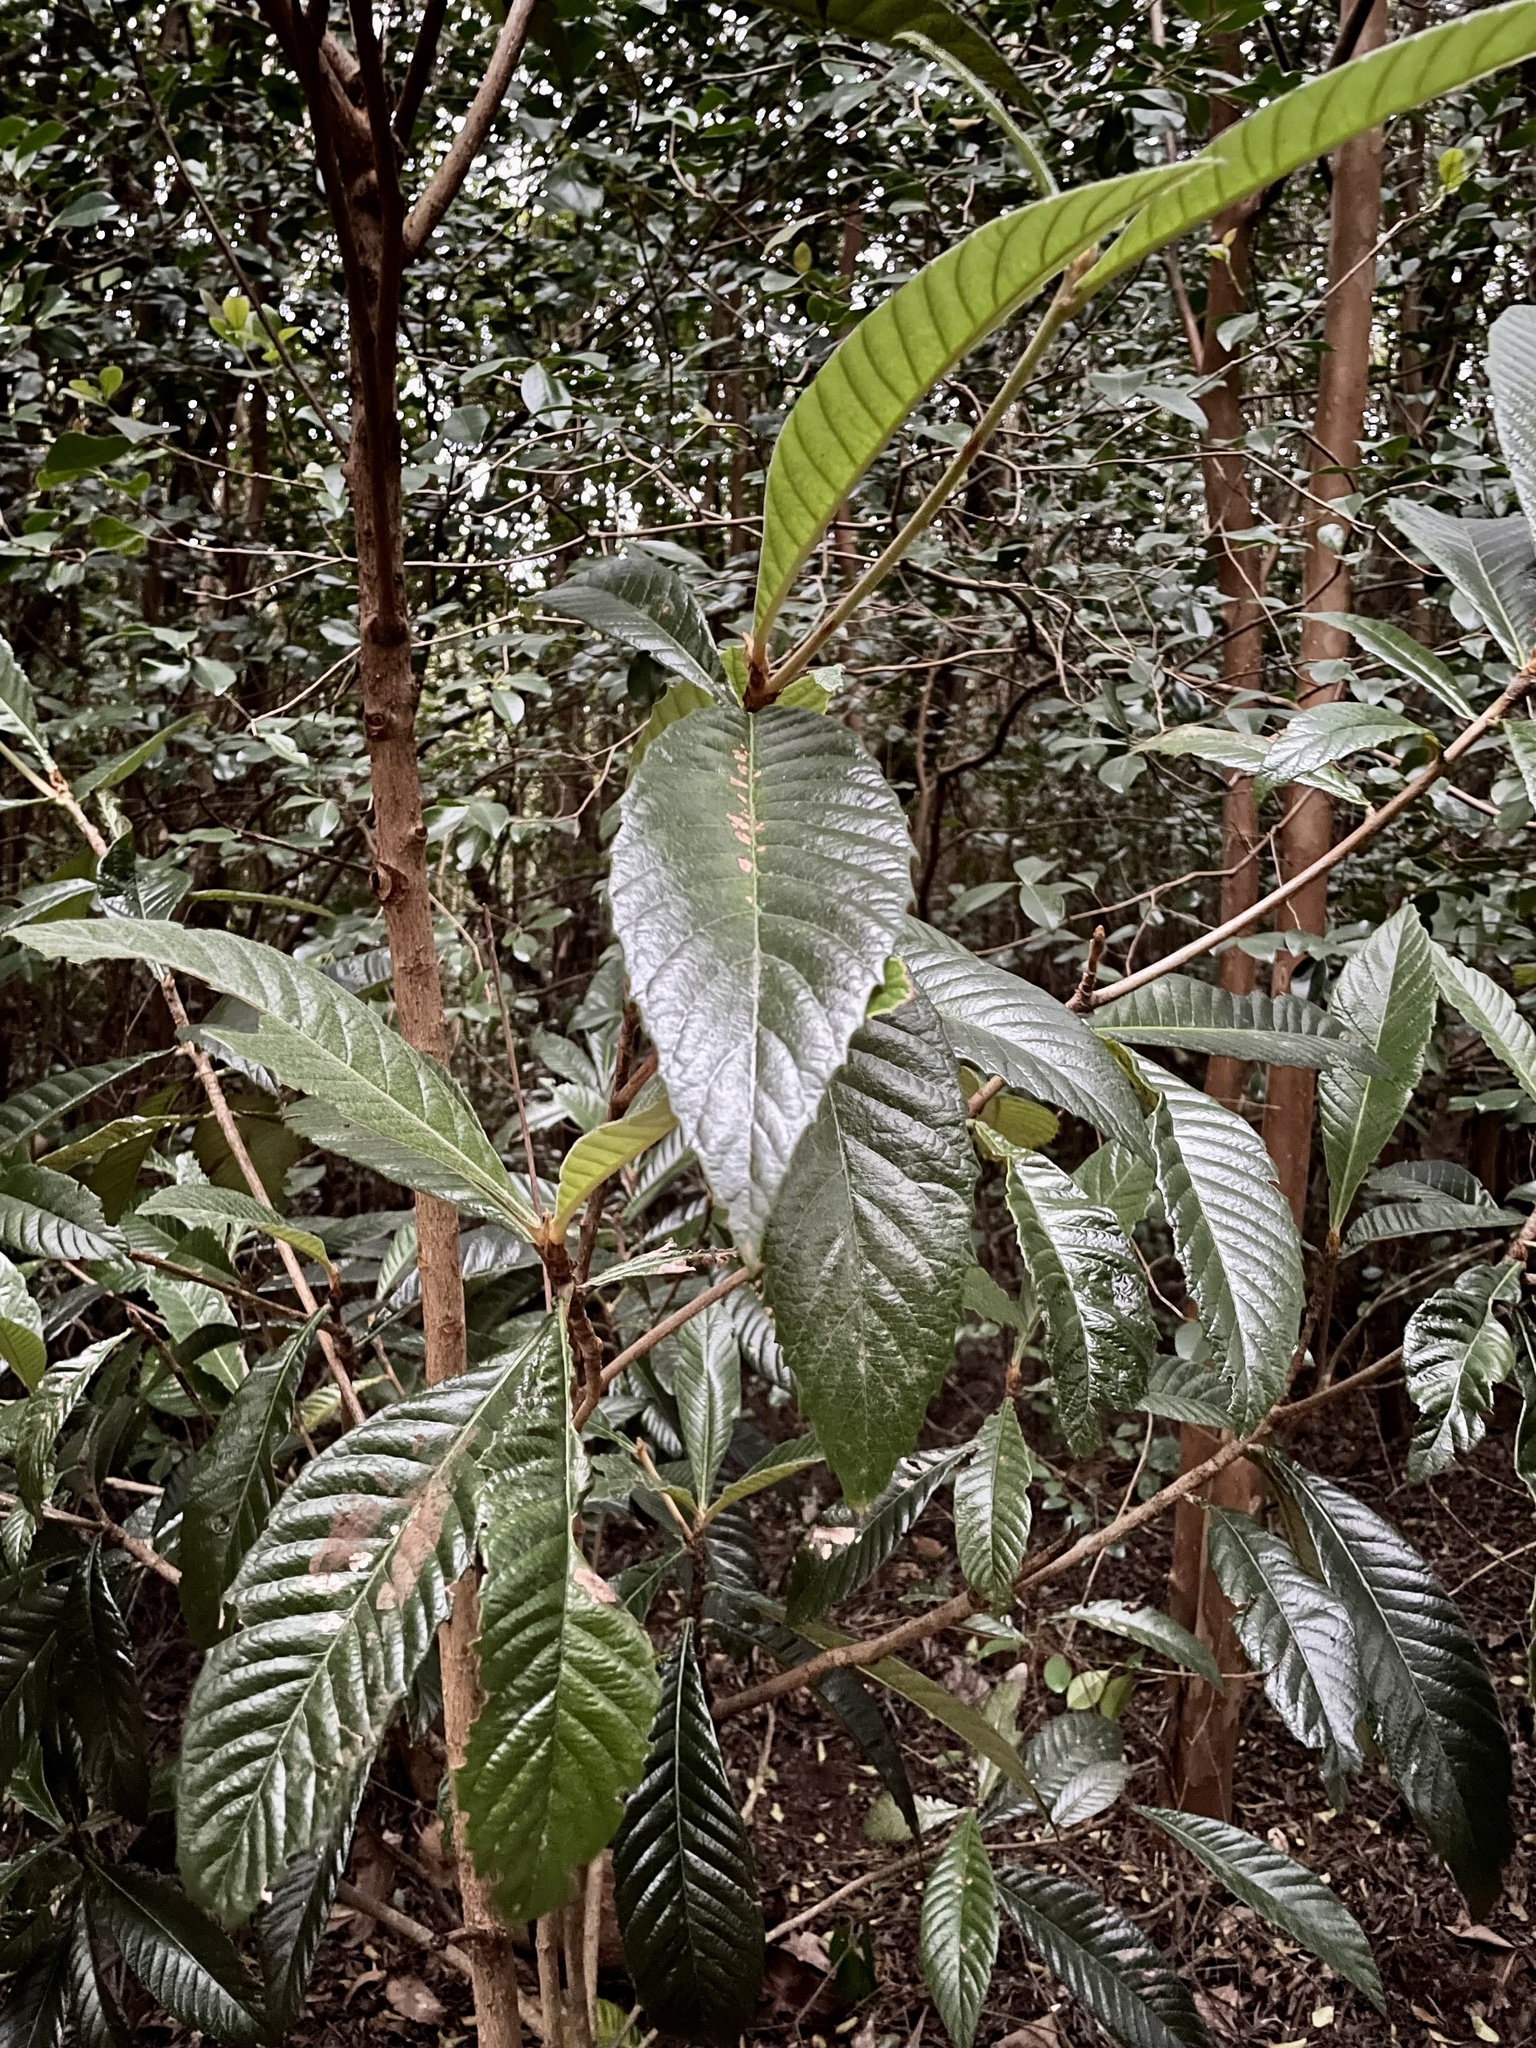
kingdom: Plantae
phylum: Tracheophyta
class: Magnoliopsida
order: Rosales
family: Rosaceae
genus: Rhaphiolepis
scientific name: Rhaphiolepis bibas
